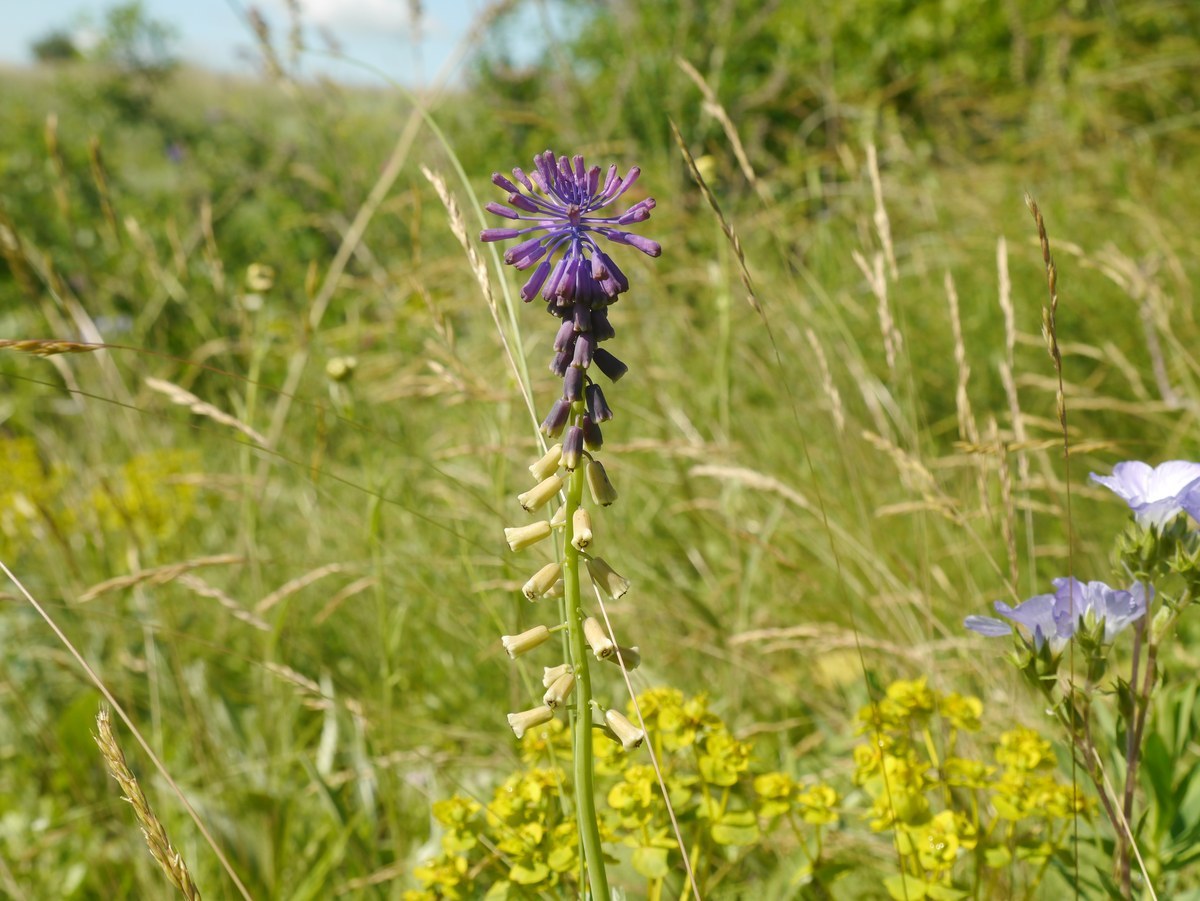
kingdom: Plantae
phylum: Tracheophyta
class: Liliopsida
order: Asparagales
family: Asparagaceae
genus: Muscari
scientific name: Muscari tenuiflorum
